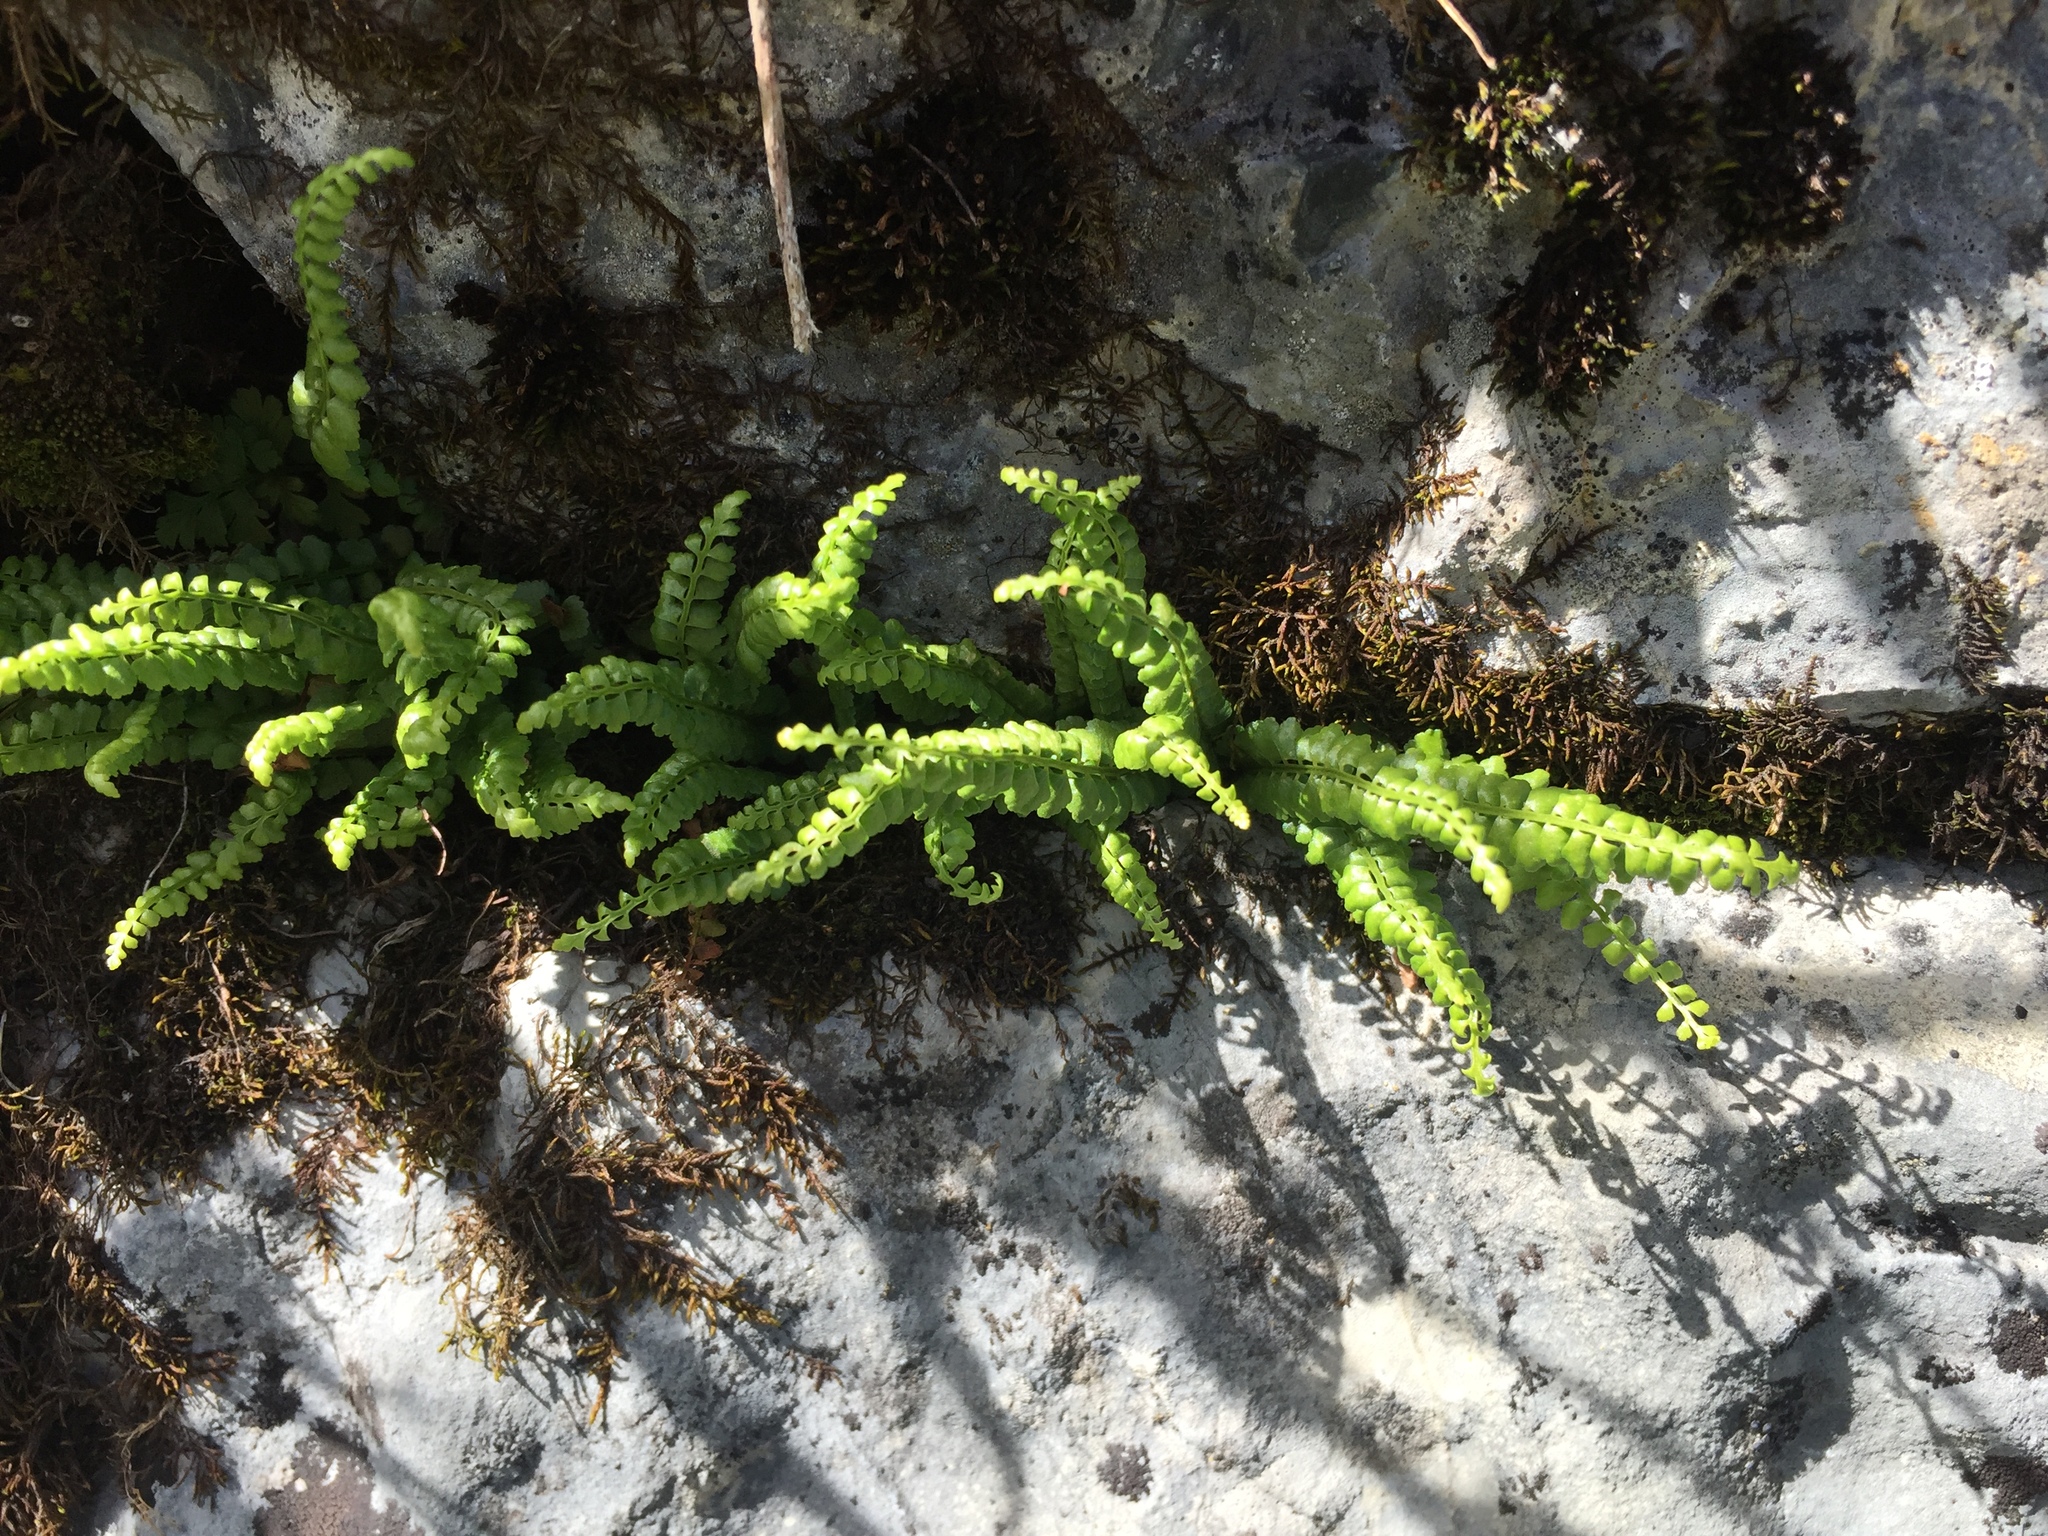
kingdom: Plantae
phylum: Tracheophyta
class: Polypodiopsida
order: Polypodiales
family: Aspleniaceae
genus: Asplenium
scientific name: Asplenium viride
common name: Green spleenwort
